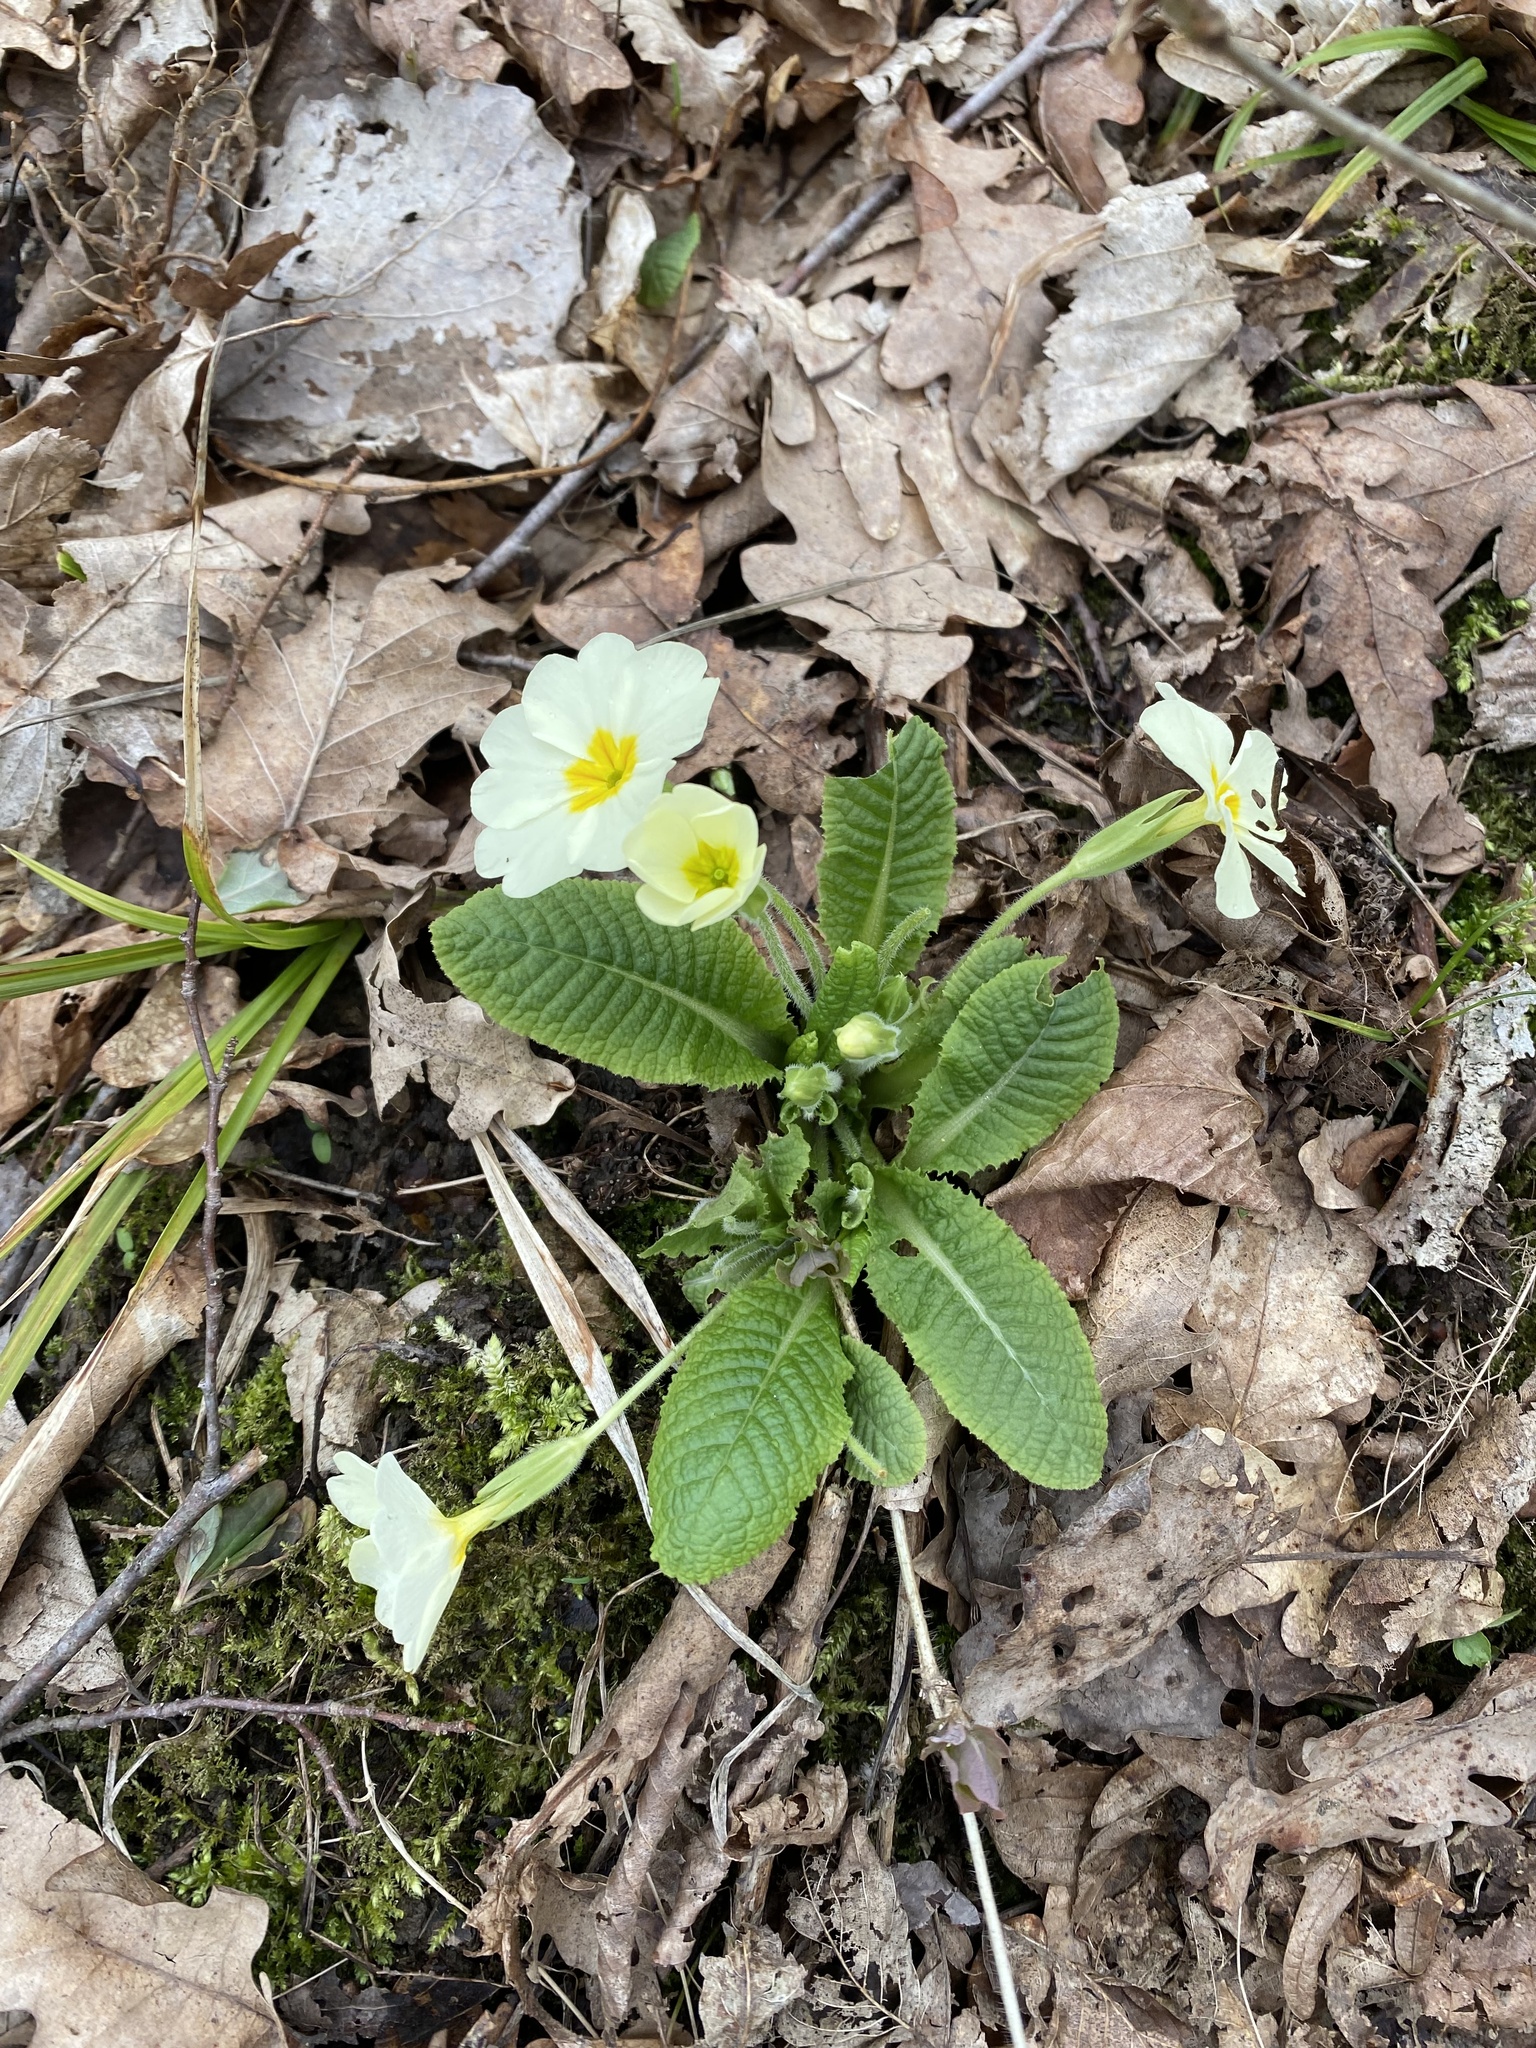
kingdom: Plantae
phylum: Tracheophyta
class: Magnoliopsida
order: Ericales
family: Primulaceae
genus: Primula
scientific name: Primula vulgaris
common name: Primrose
